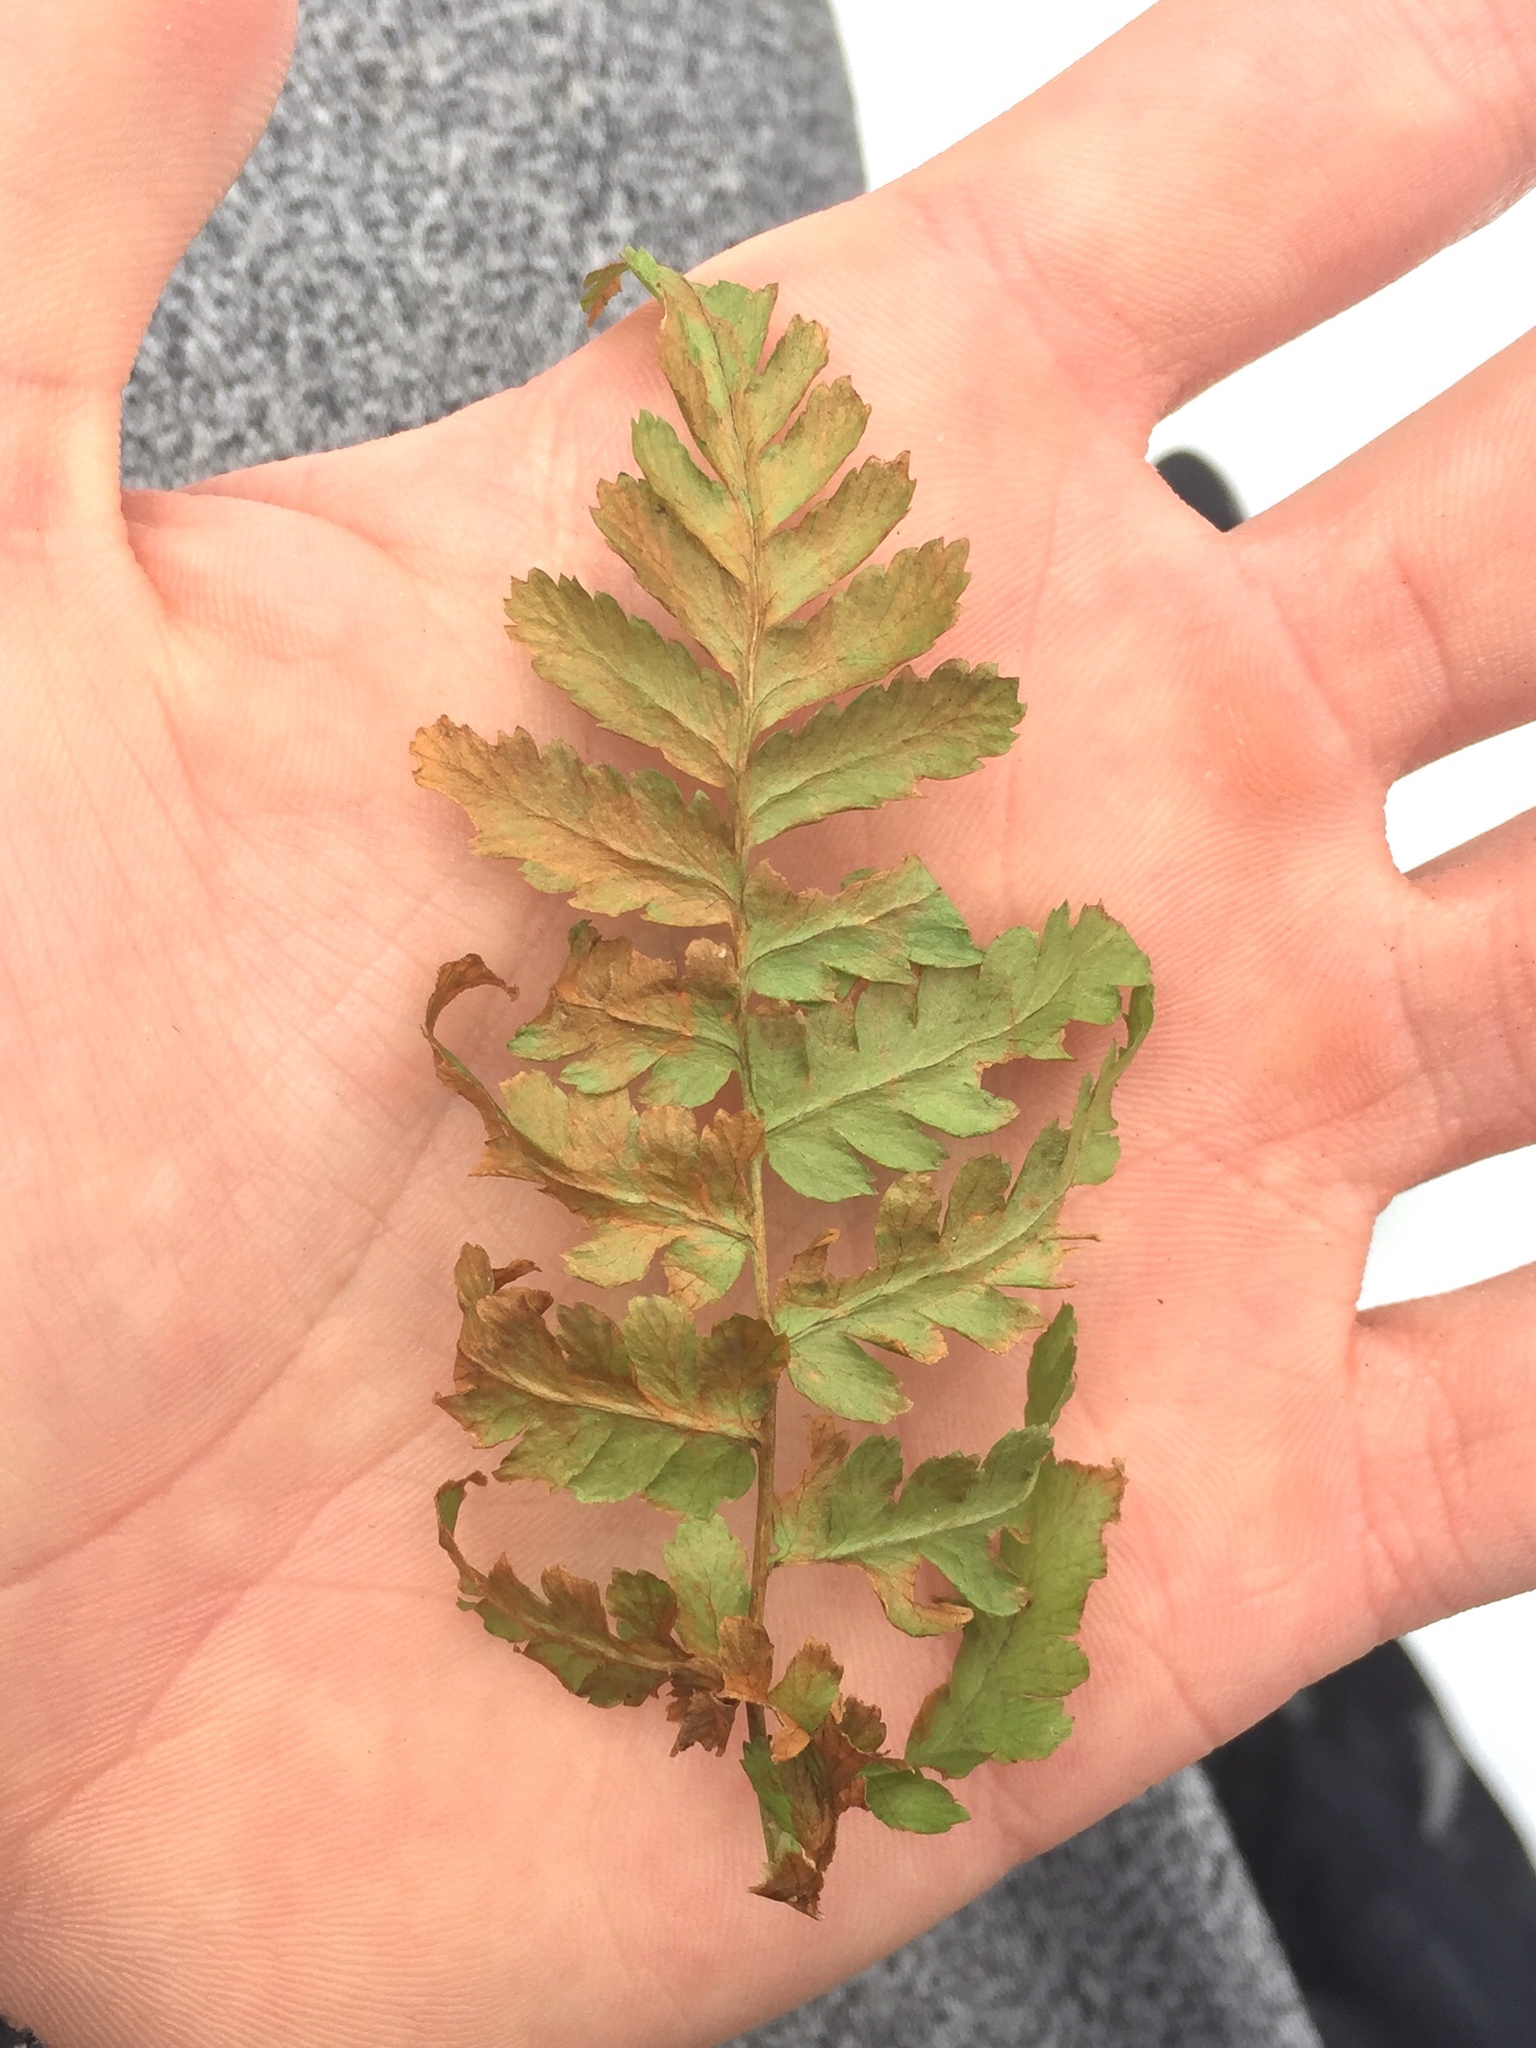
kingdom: Plantae
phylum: Tracheophyta
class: Polypodiopsida
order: Polypodiales
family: Dryopteridaceae
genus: Dryopteris
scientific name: Dryopteris intermedia
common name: Evergreen wood fern
